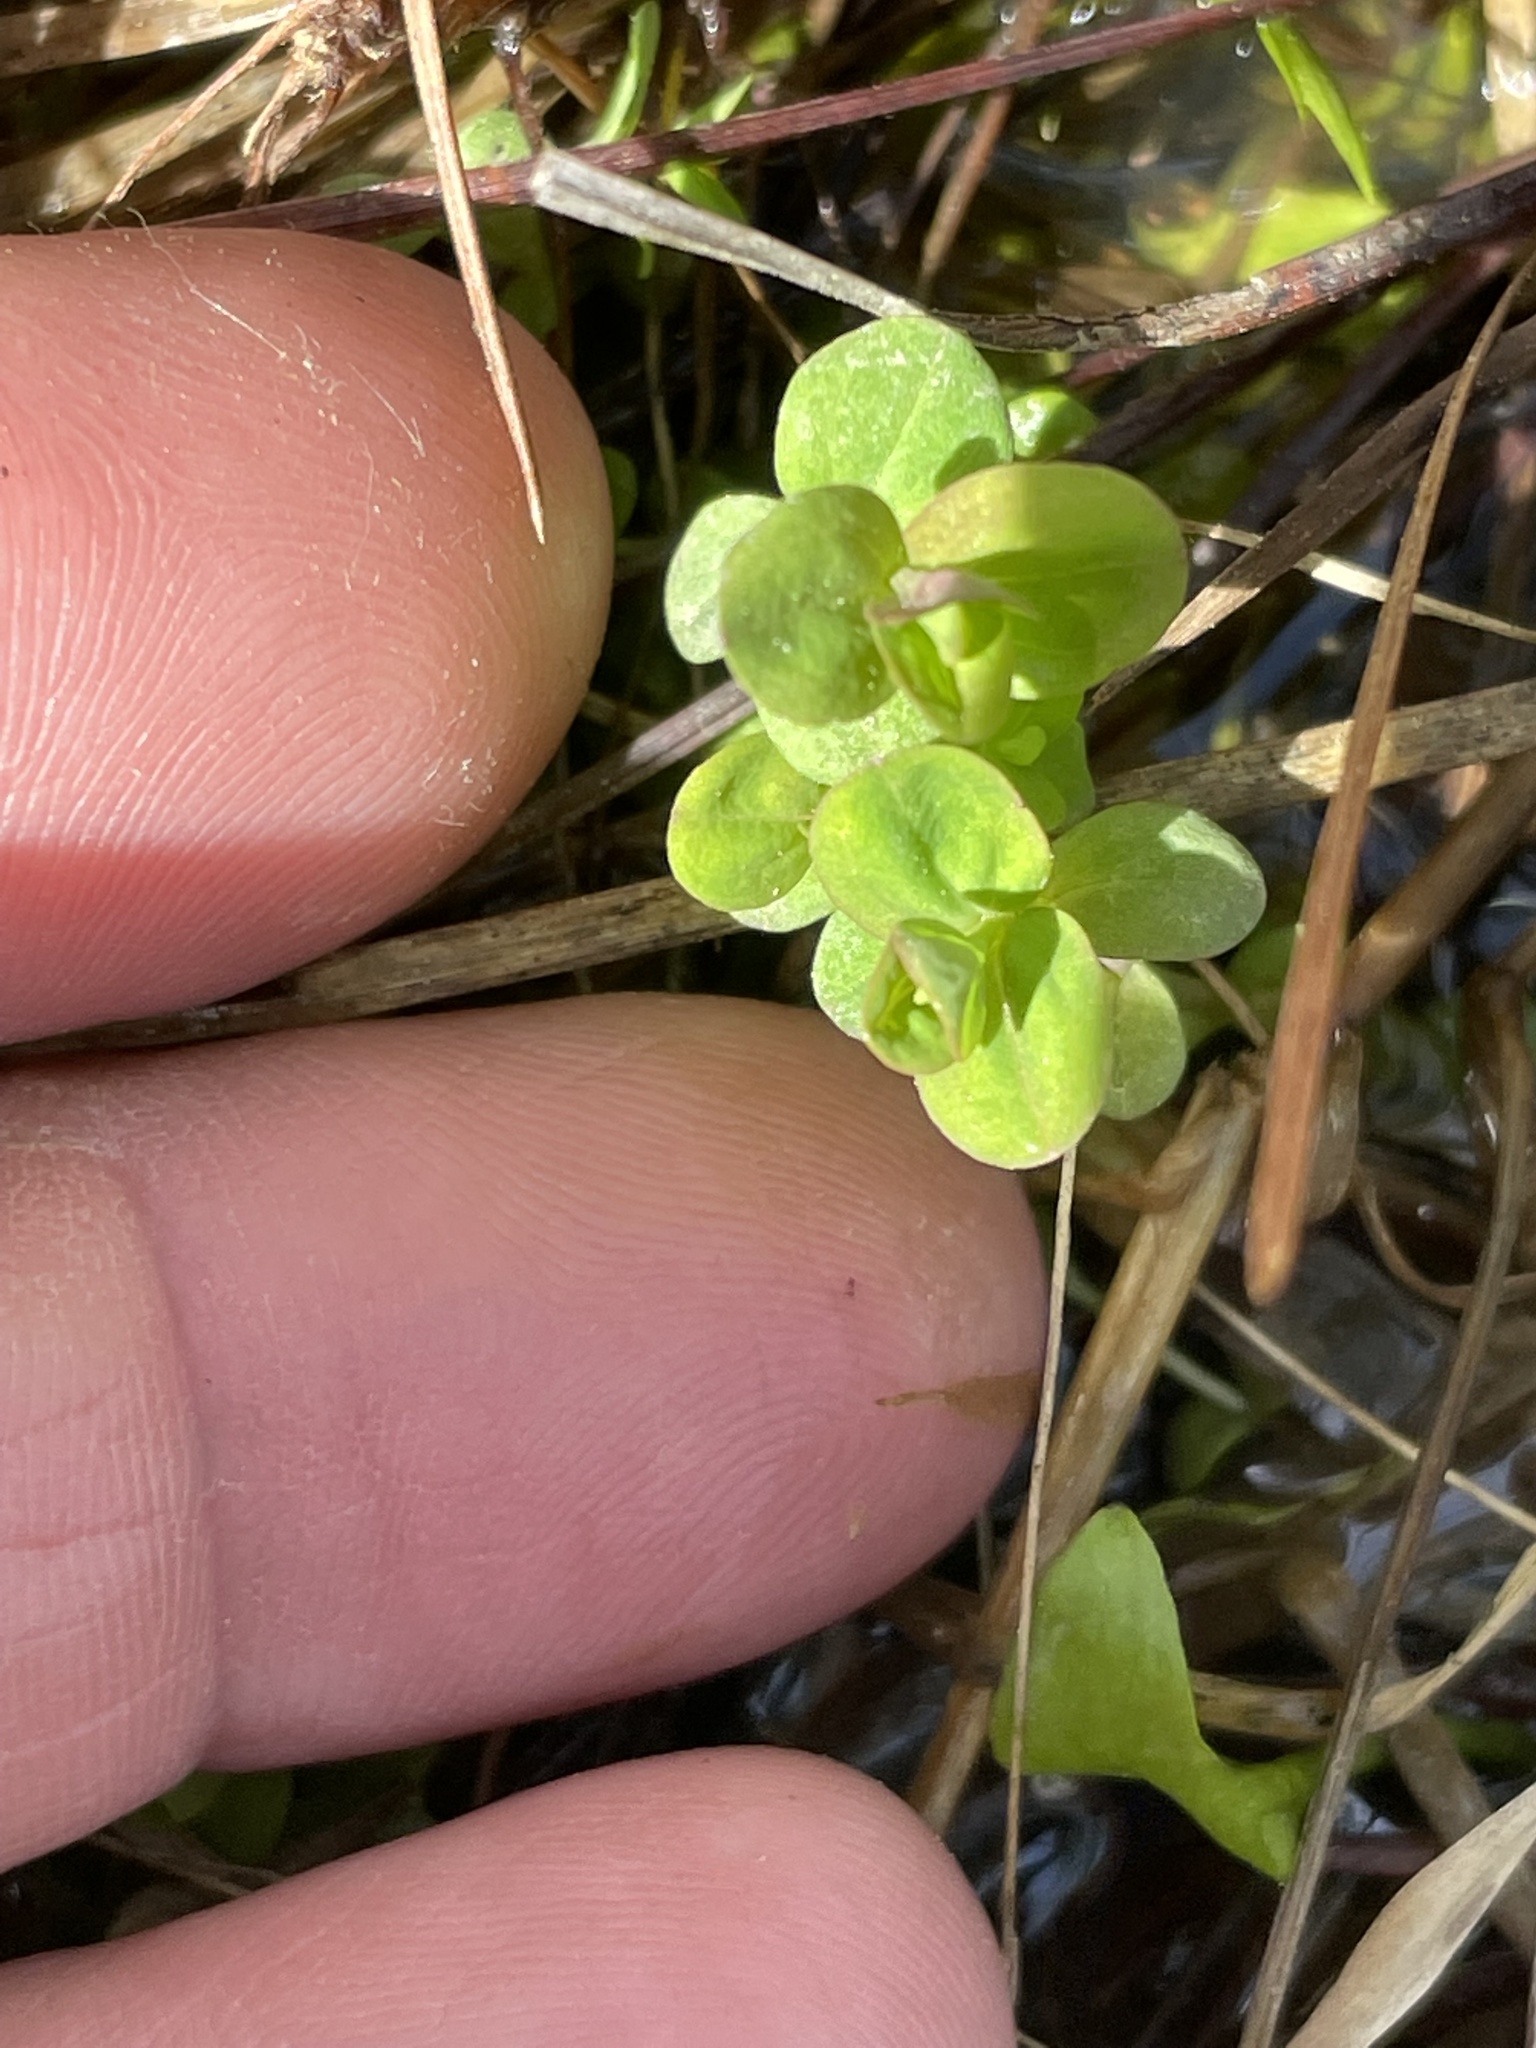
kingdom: Plantae
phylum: Tracheophyta
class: Magnoliopsida
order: Malpighiales
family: Hypericaceae
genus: Hypericum
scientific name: Hypericum mutilum
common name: Dwarf st. john's-wort
